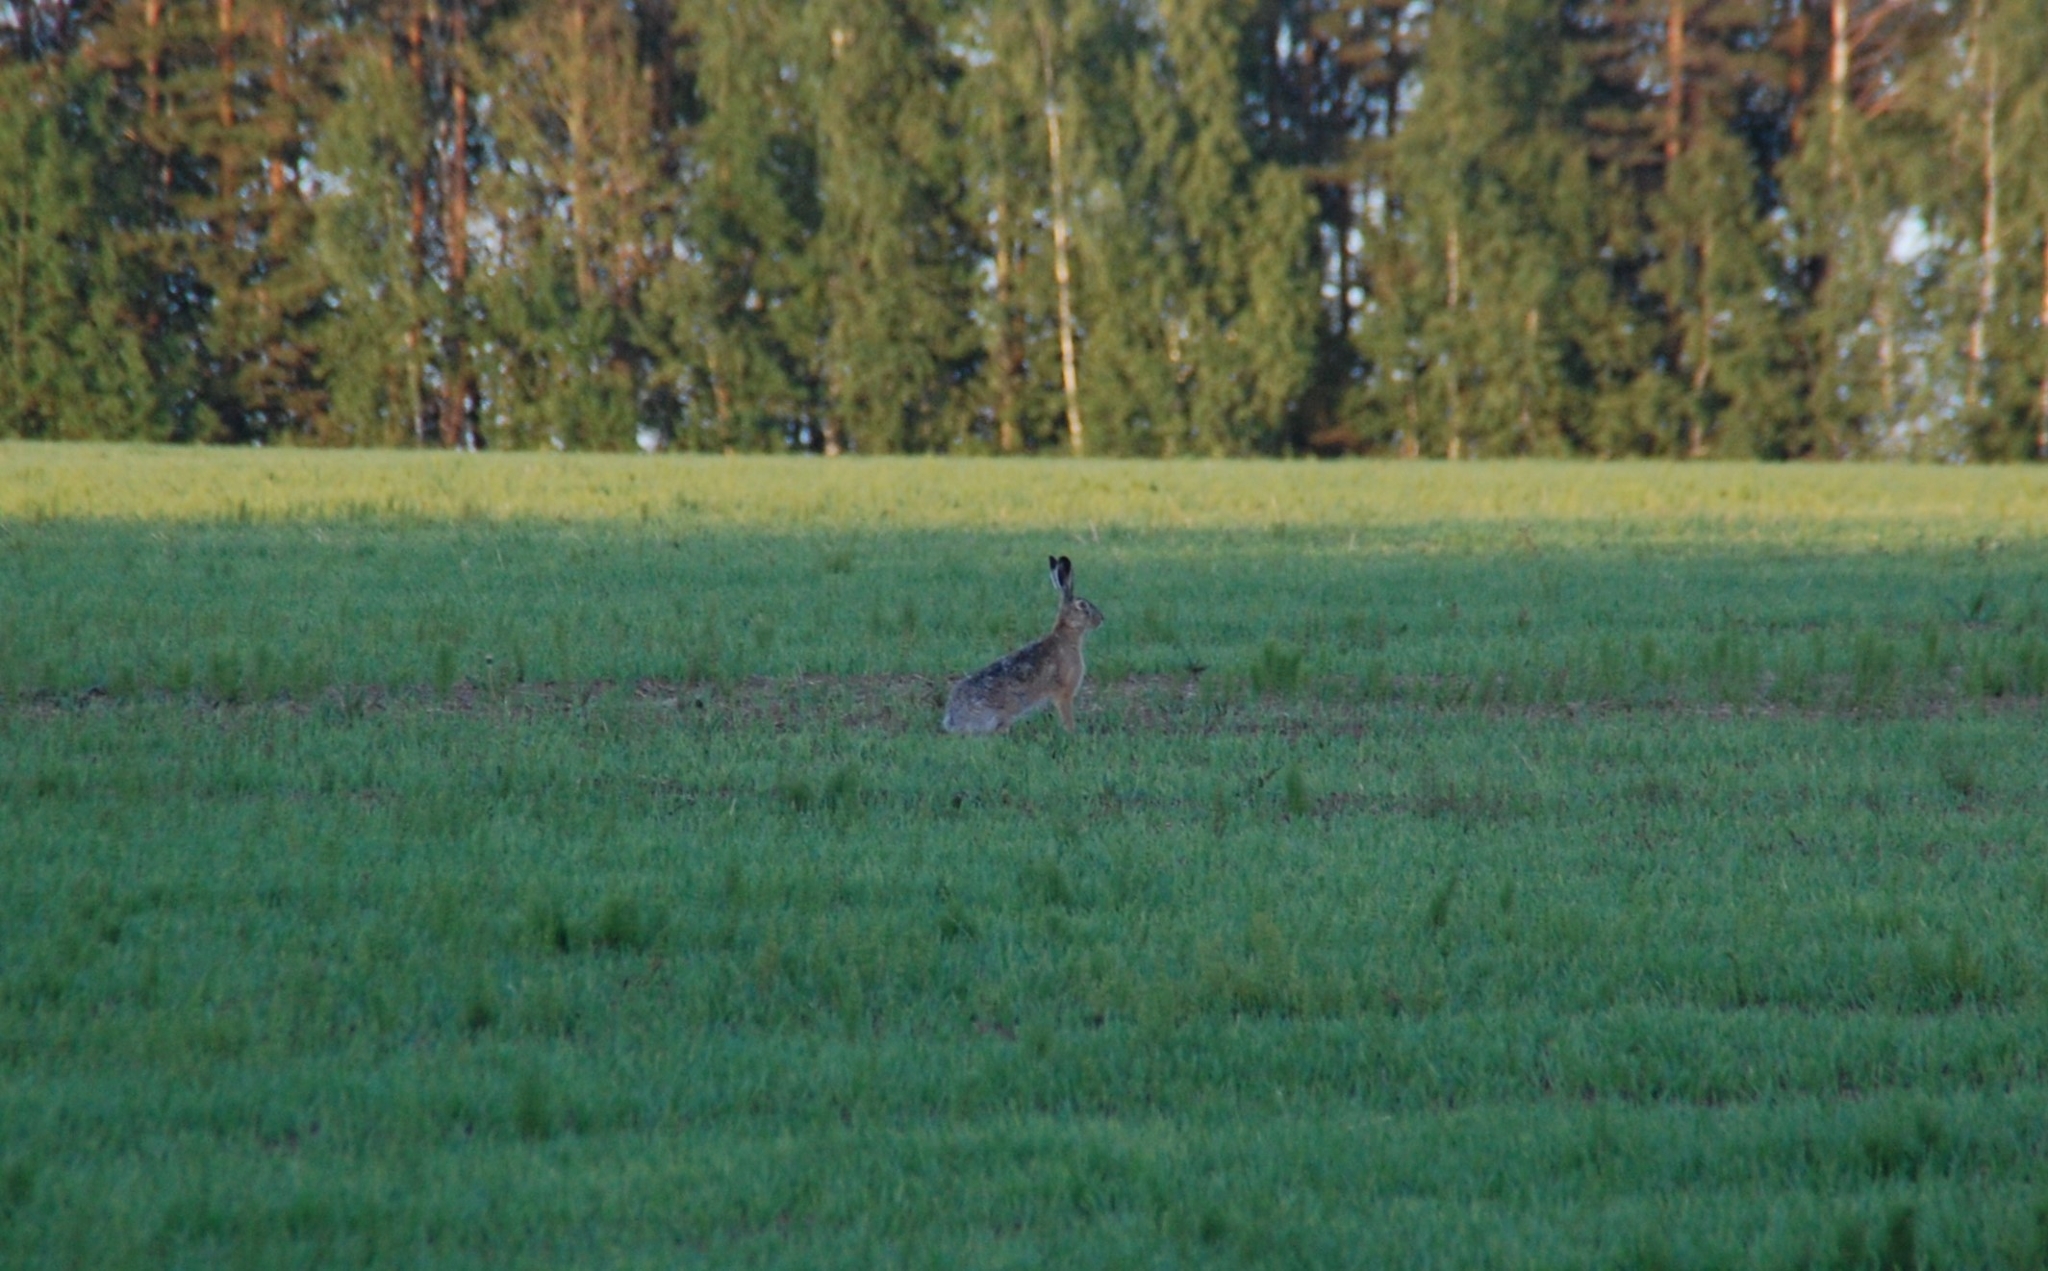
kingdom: Animalia
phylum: Chordata
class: Mammalia
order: Lagomorpha
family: Leporidae
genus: Lepus
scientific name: Lepus europaeus
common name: European hare
